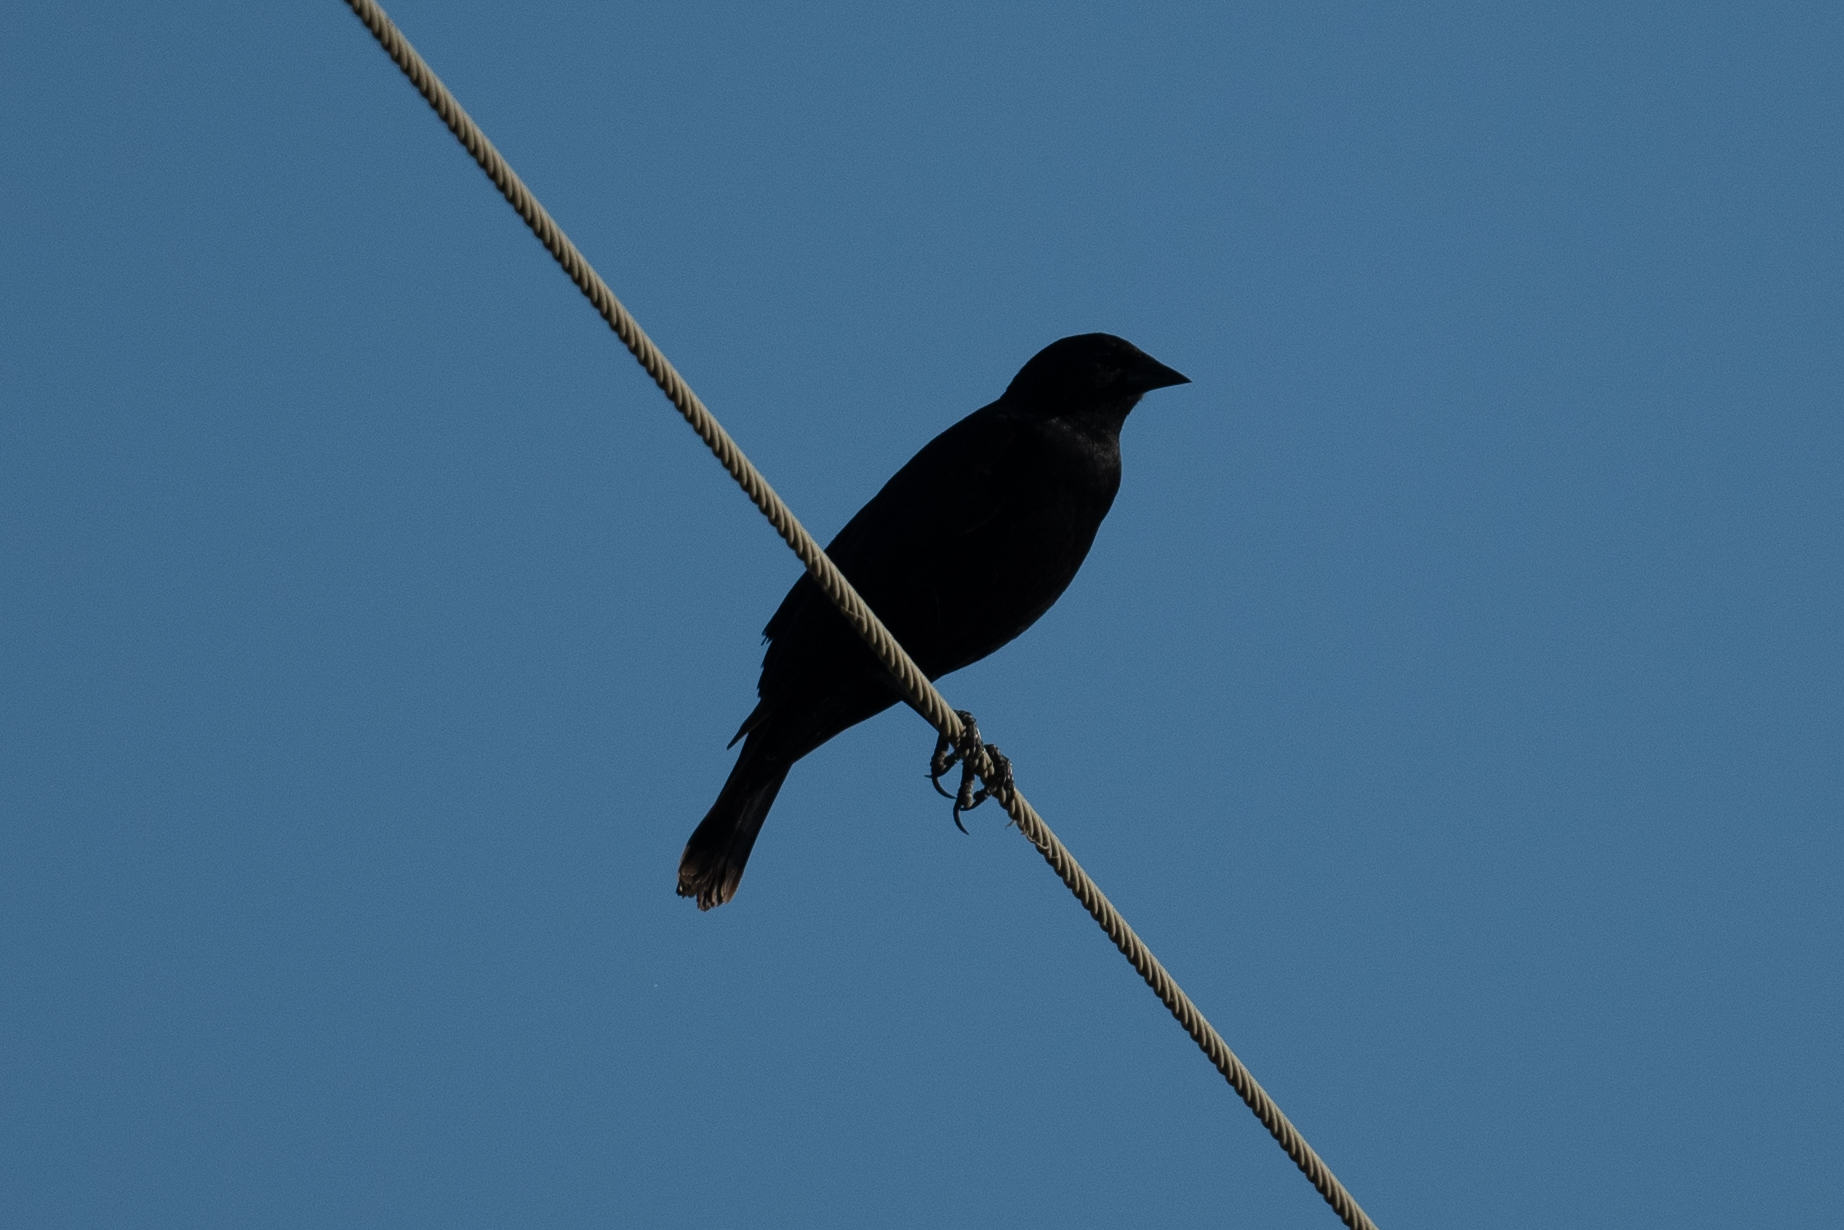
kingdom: Animalia
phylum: Chordata
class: Aves
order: Passeriformes
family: Icteridae
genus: Molothrus
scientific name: Molothrus ater
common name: Brown-headed cowbird
